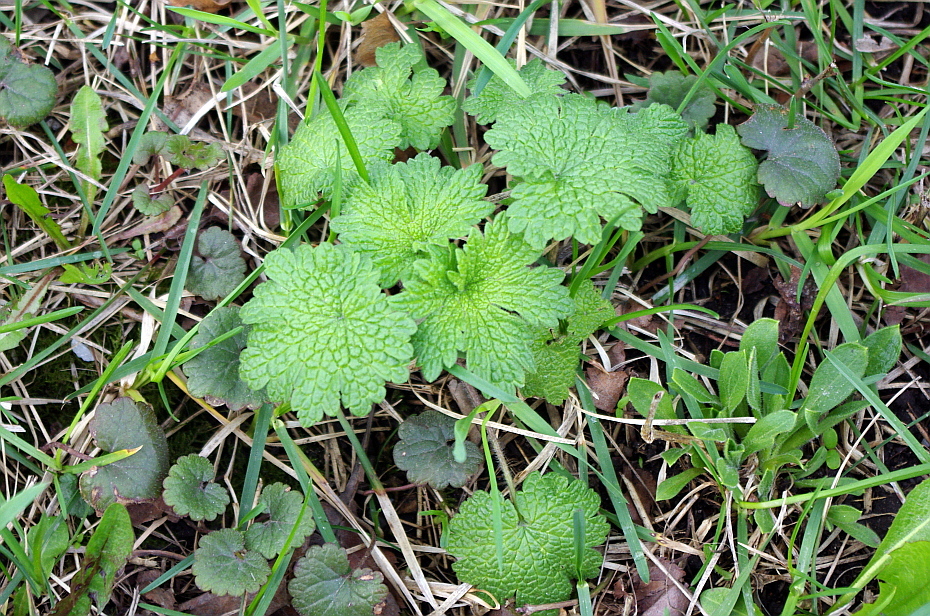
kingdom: Plantae
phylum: Tracheophyta
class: Magnoliopsida
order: Lamiales
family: Lamiaceae
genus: Leonurus
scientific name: Leonurus quinquelobatus
